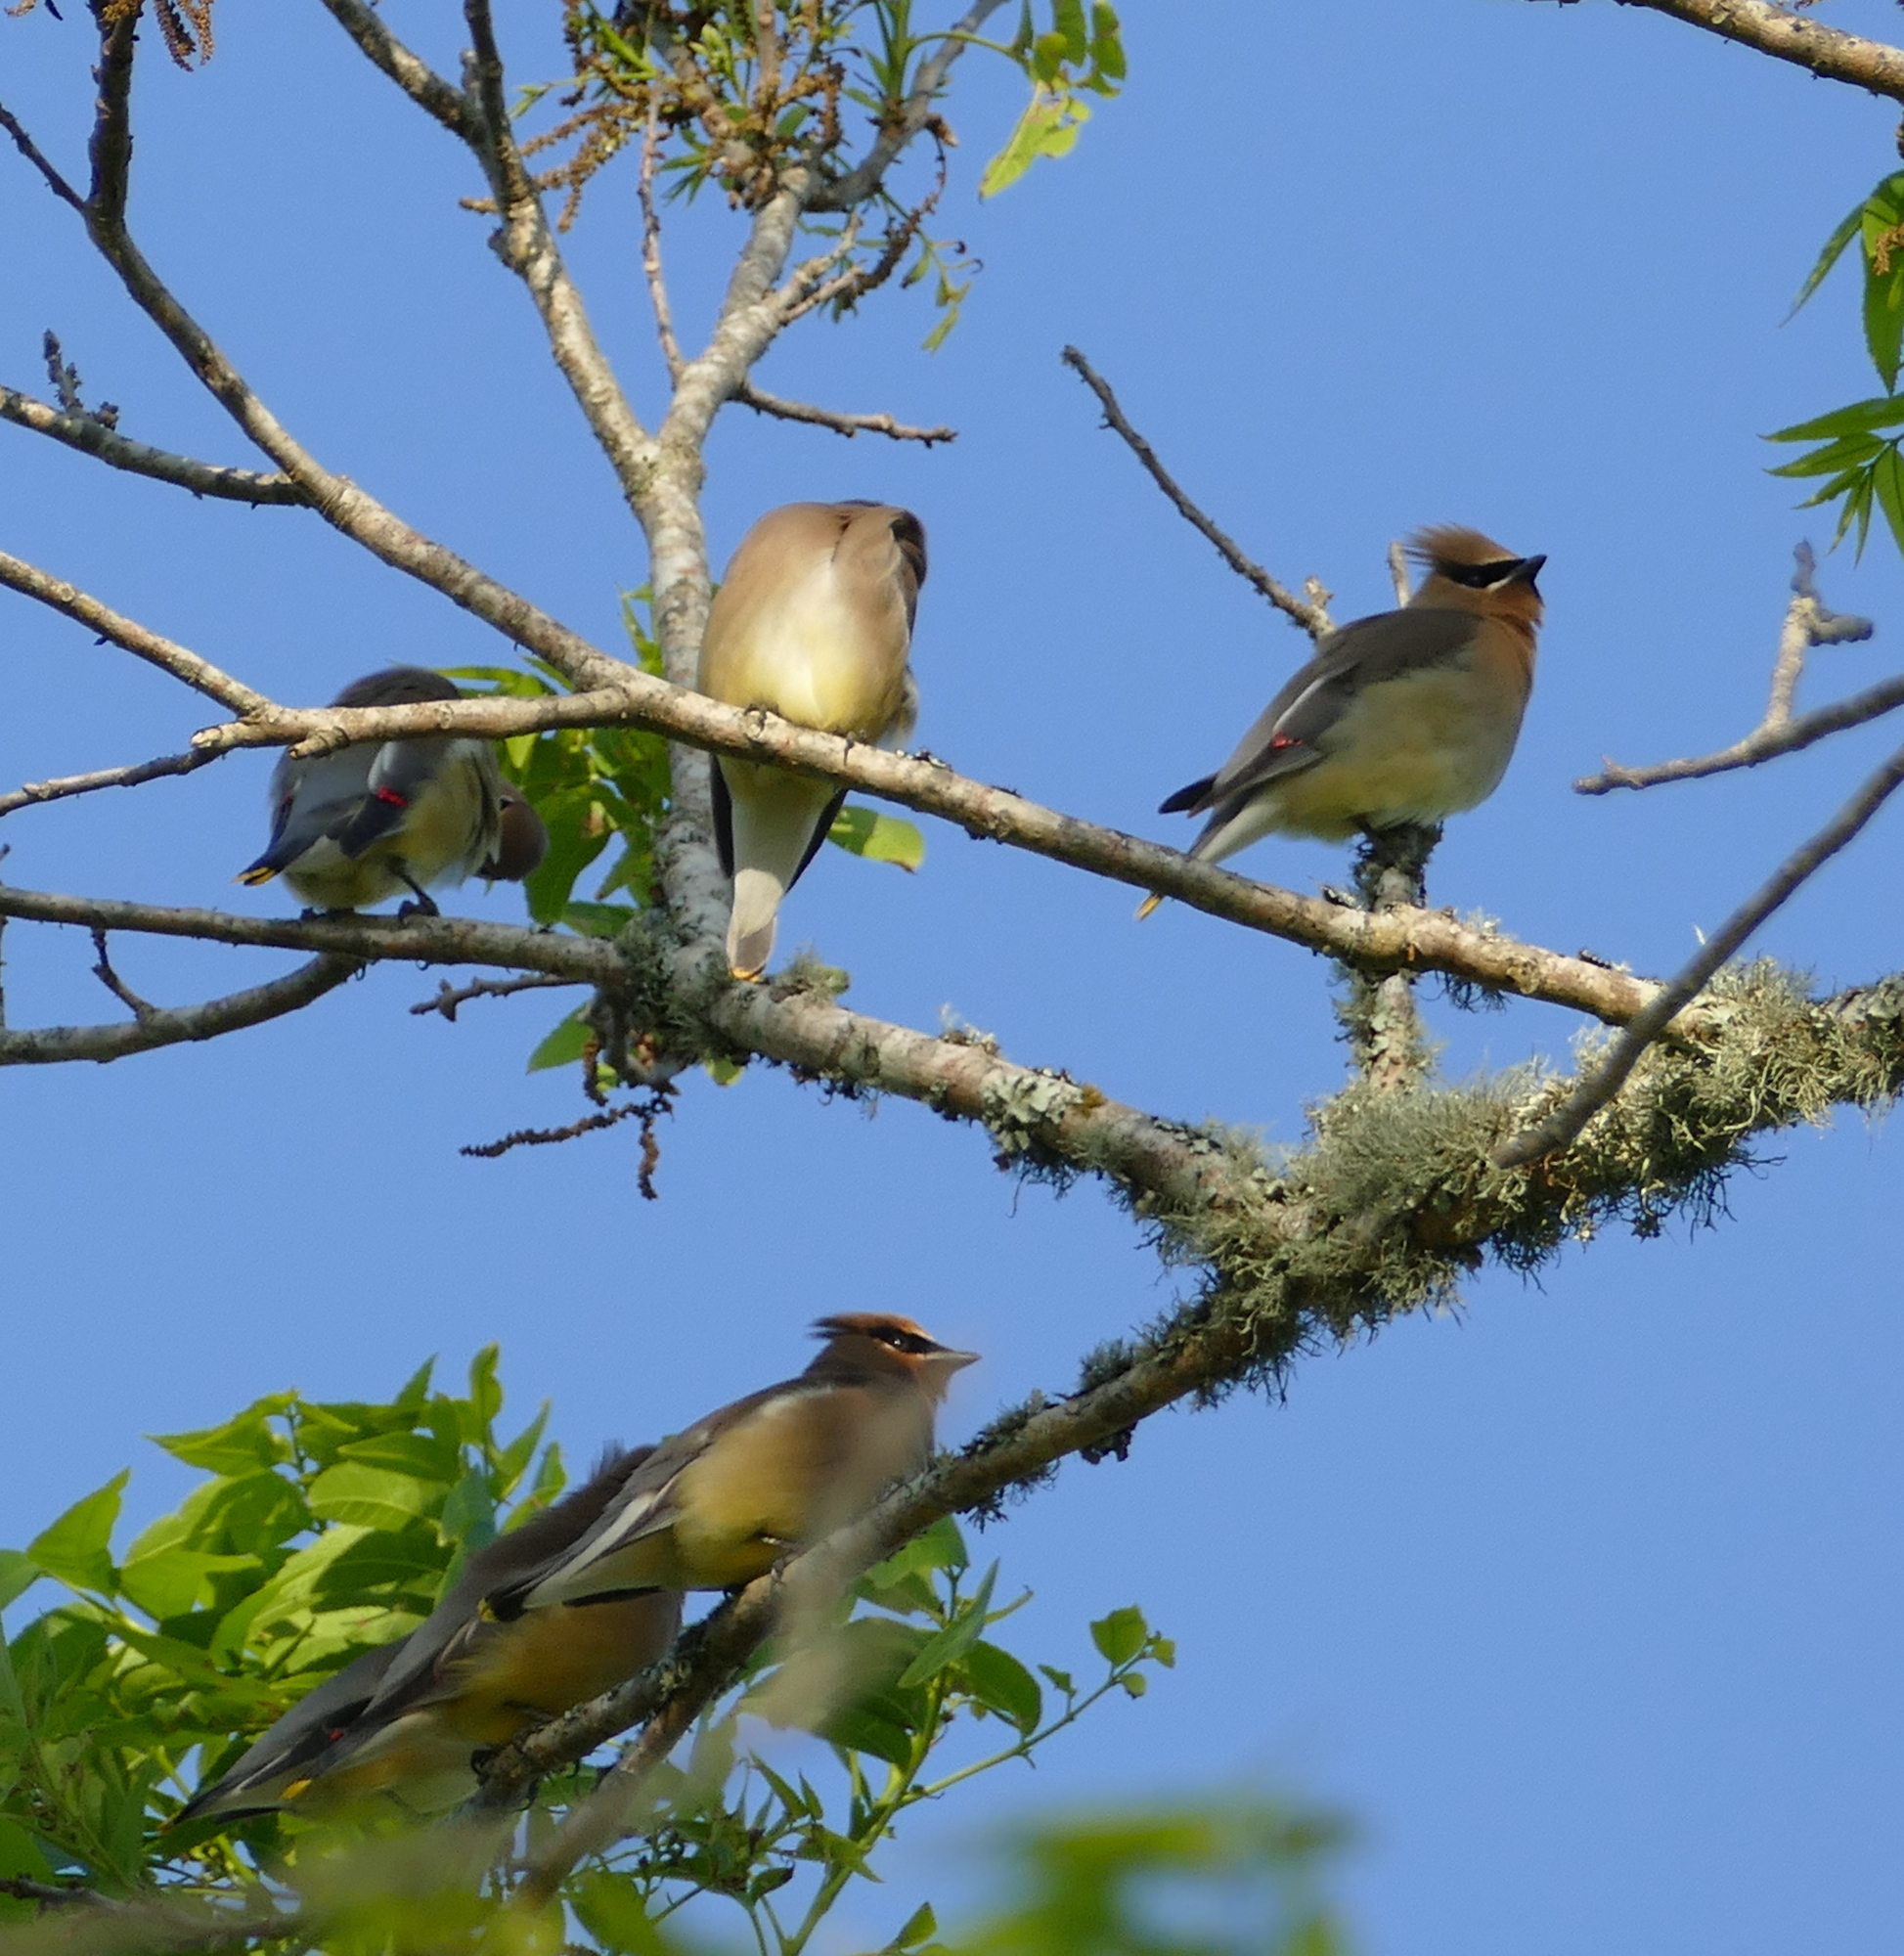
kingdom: Animalia
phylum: Chordata
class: Aves
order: Passeriformes
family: Bombycillidae
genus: Bombycilla
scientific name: Bombycilla cedrorum
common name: Cedar waxwing
